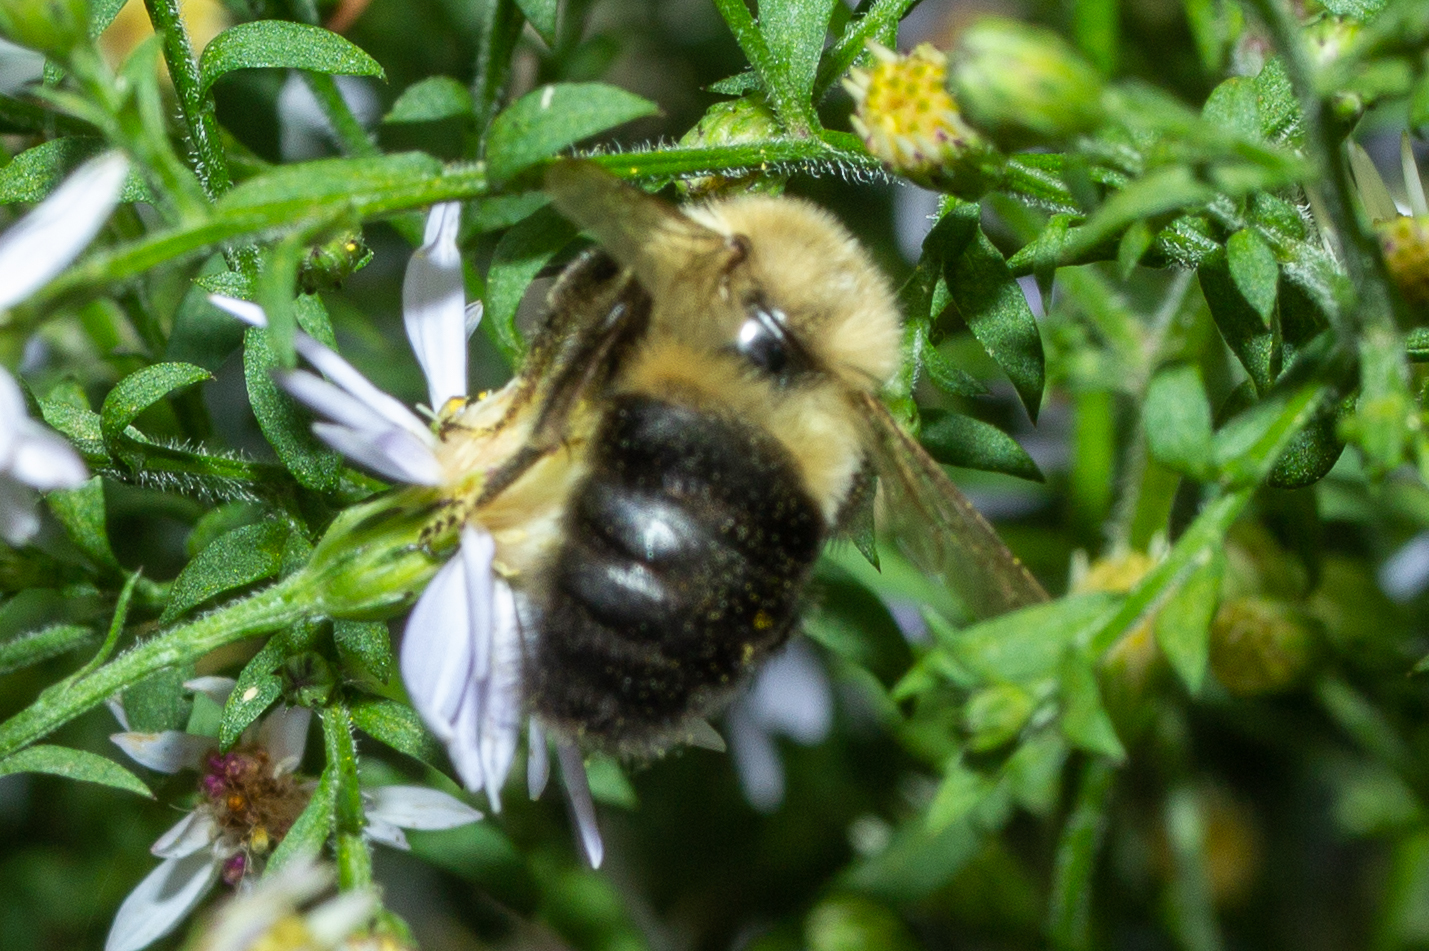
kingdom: Animalia
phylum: Arthropoda
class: Insecta
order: Hymenoptera
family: Apidae
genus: Bombus
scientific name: Bombus impatiens
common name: Common eastern bumble bee
